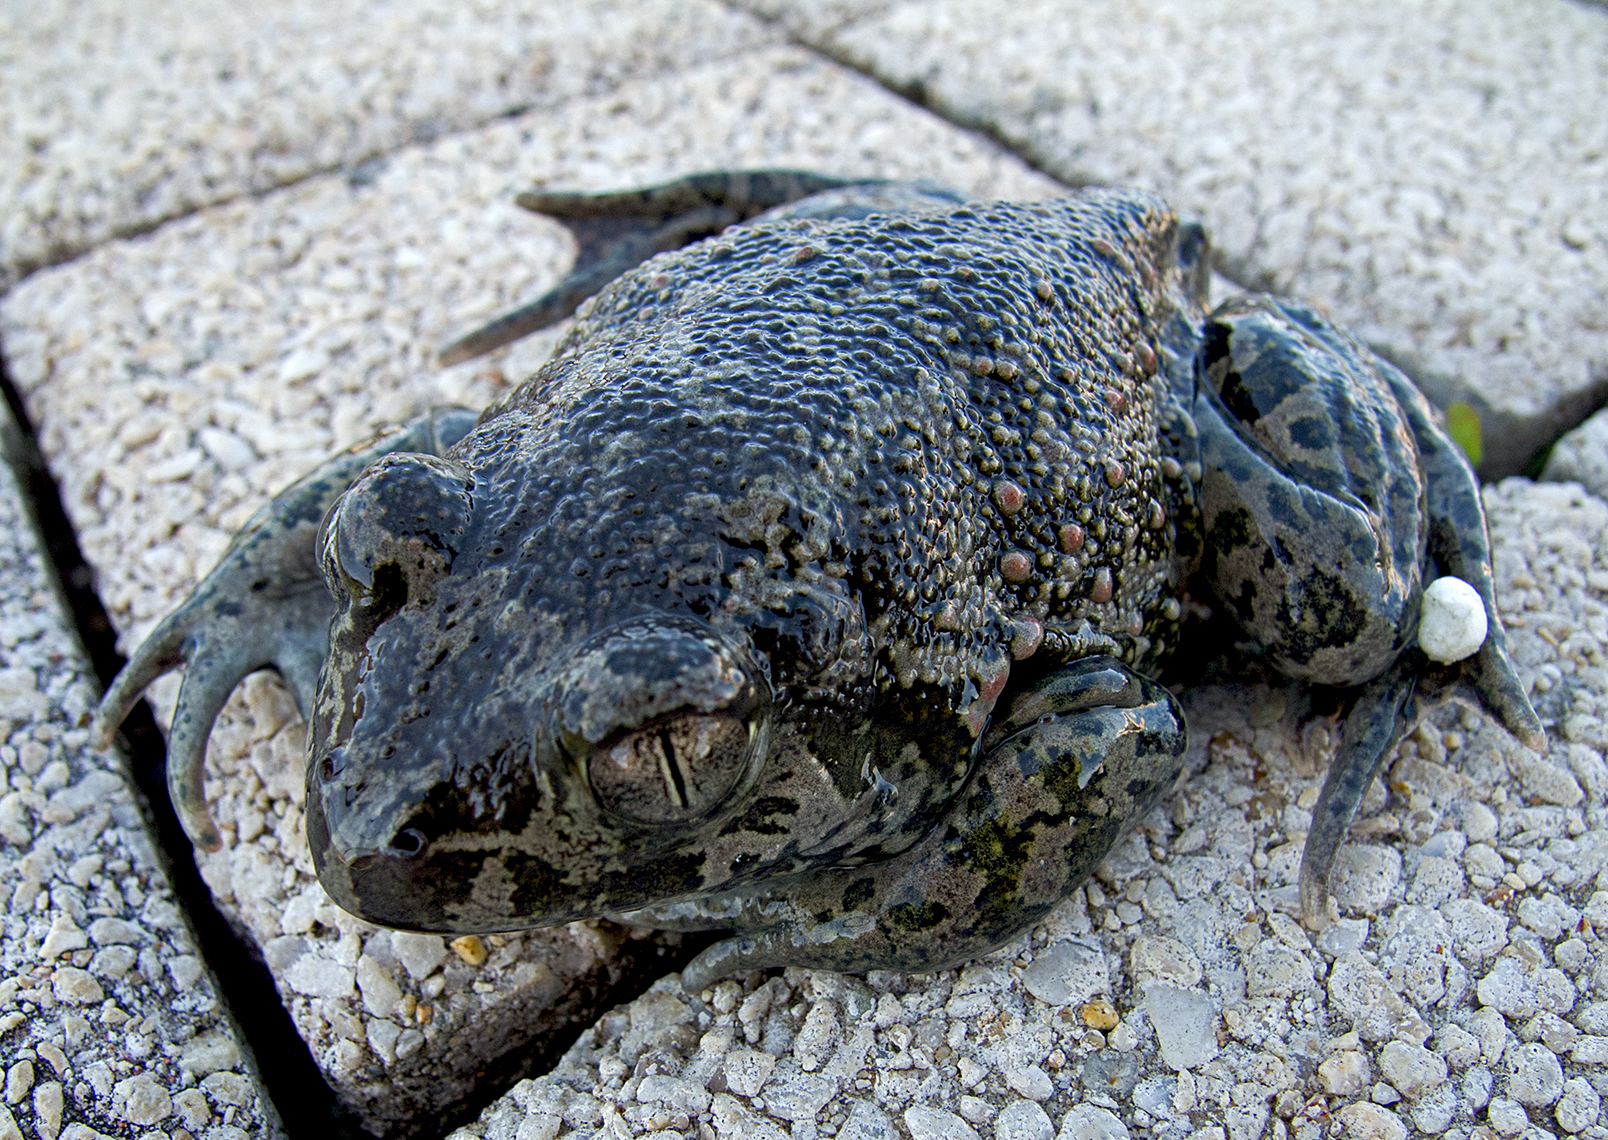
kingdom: Animalia
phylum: Chordata
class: Amphibia
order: Anura
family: Pelobatidae
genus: Pelobates
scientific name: Pelobates balcanicus
